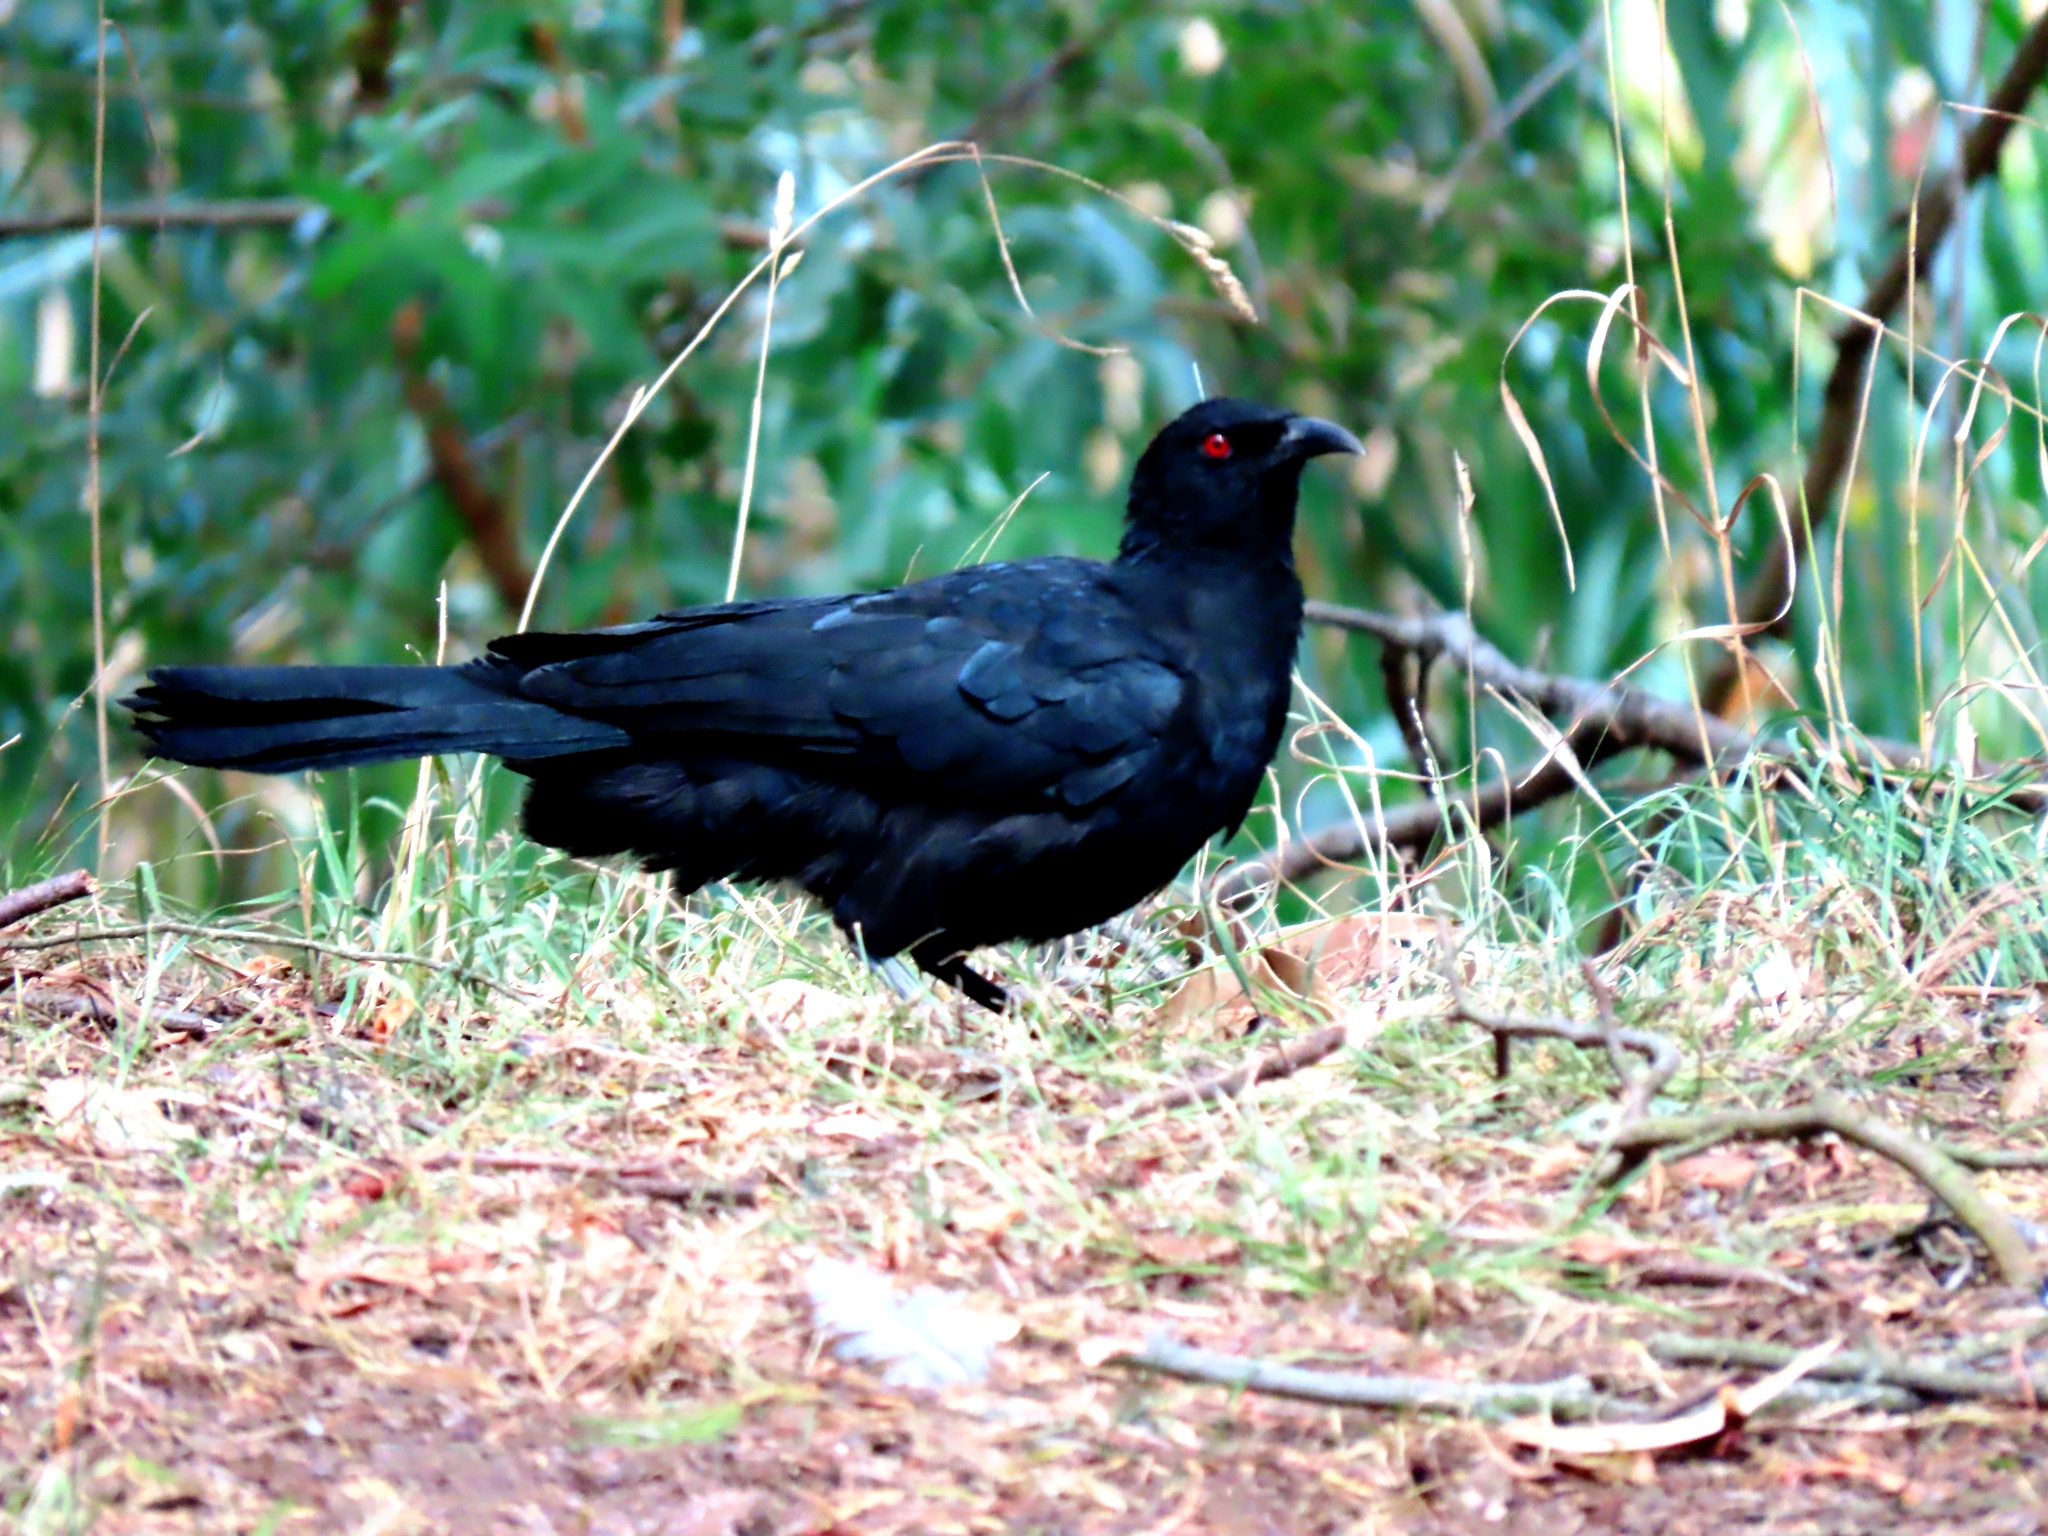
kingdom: Animalia
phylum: Chordata
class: Aves
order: Passeriformes
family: Corcoracidae
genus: Corcorax
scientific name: Corcorax melanoramphos
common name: White-winged chough
